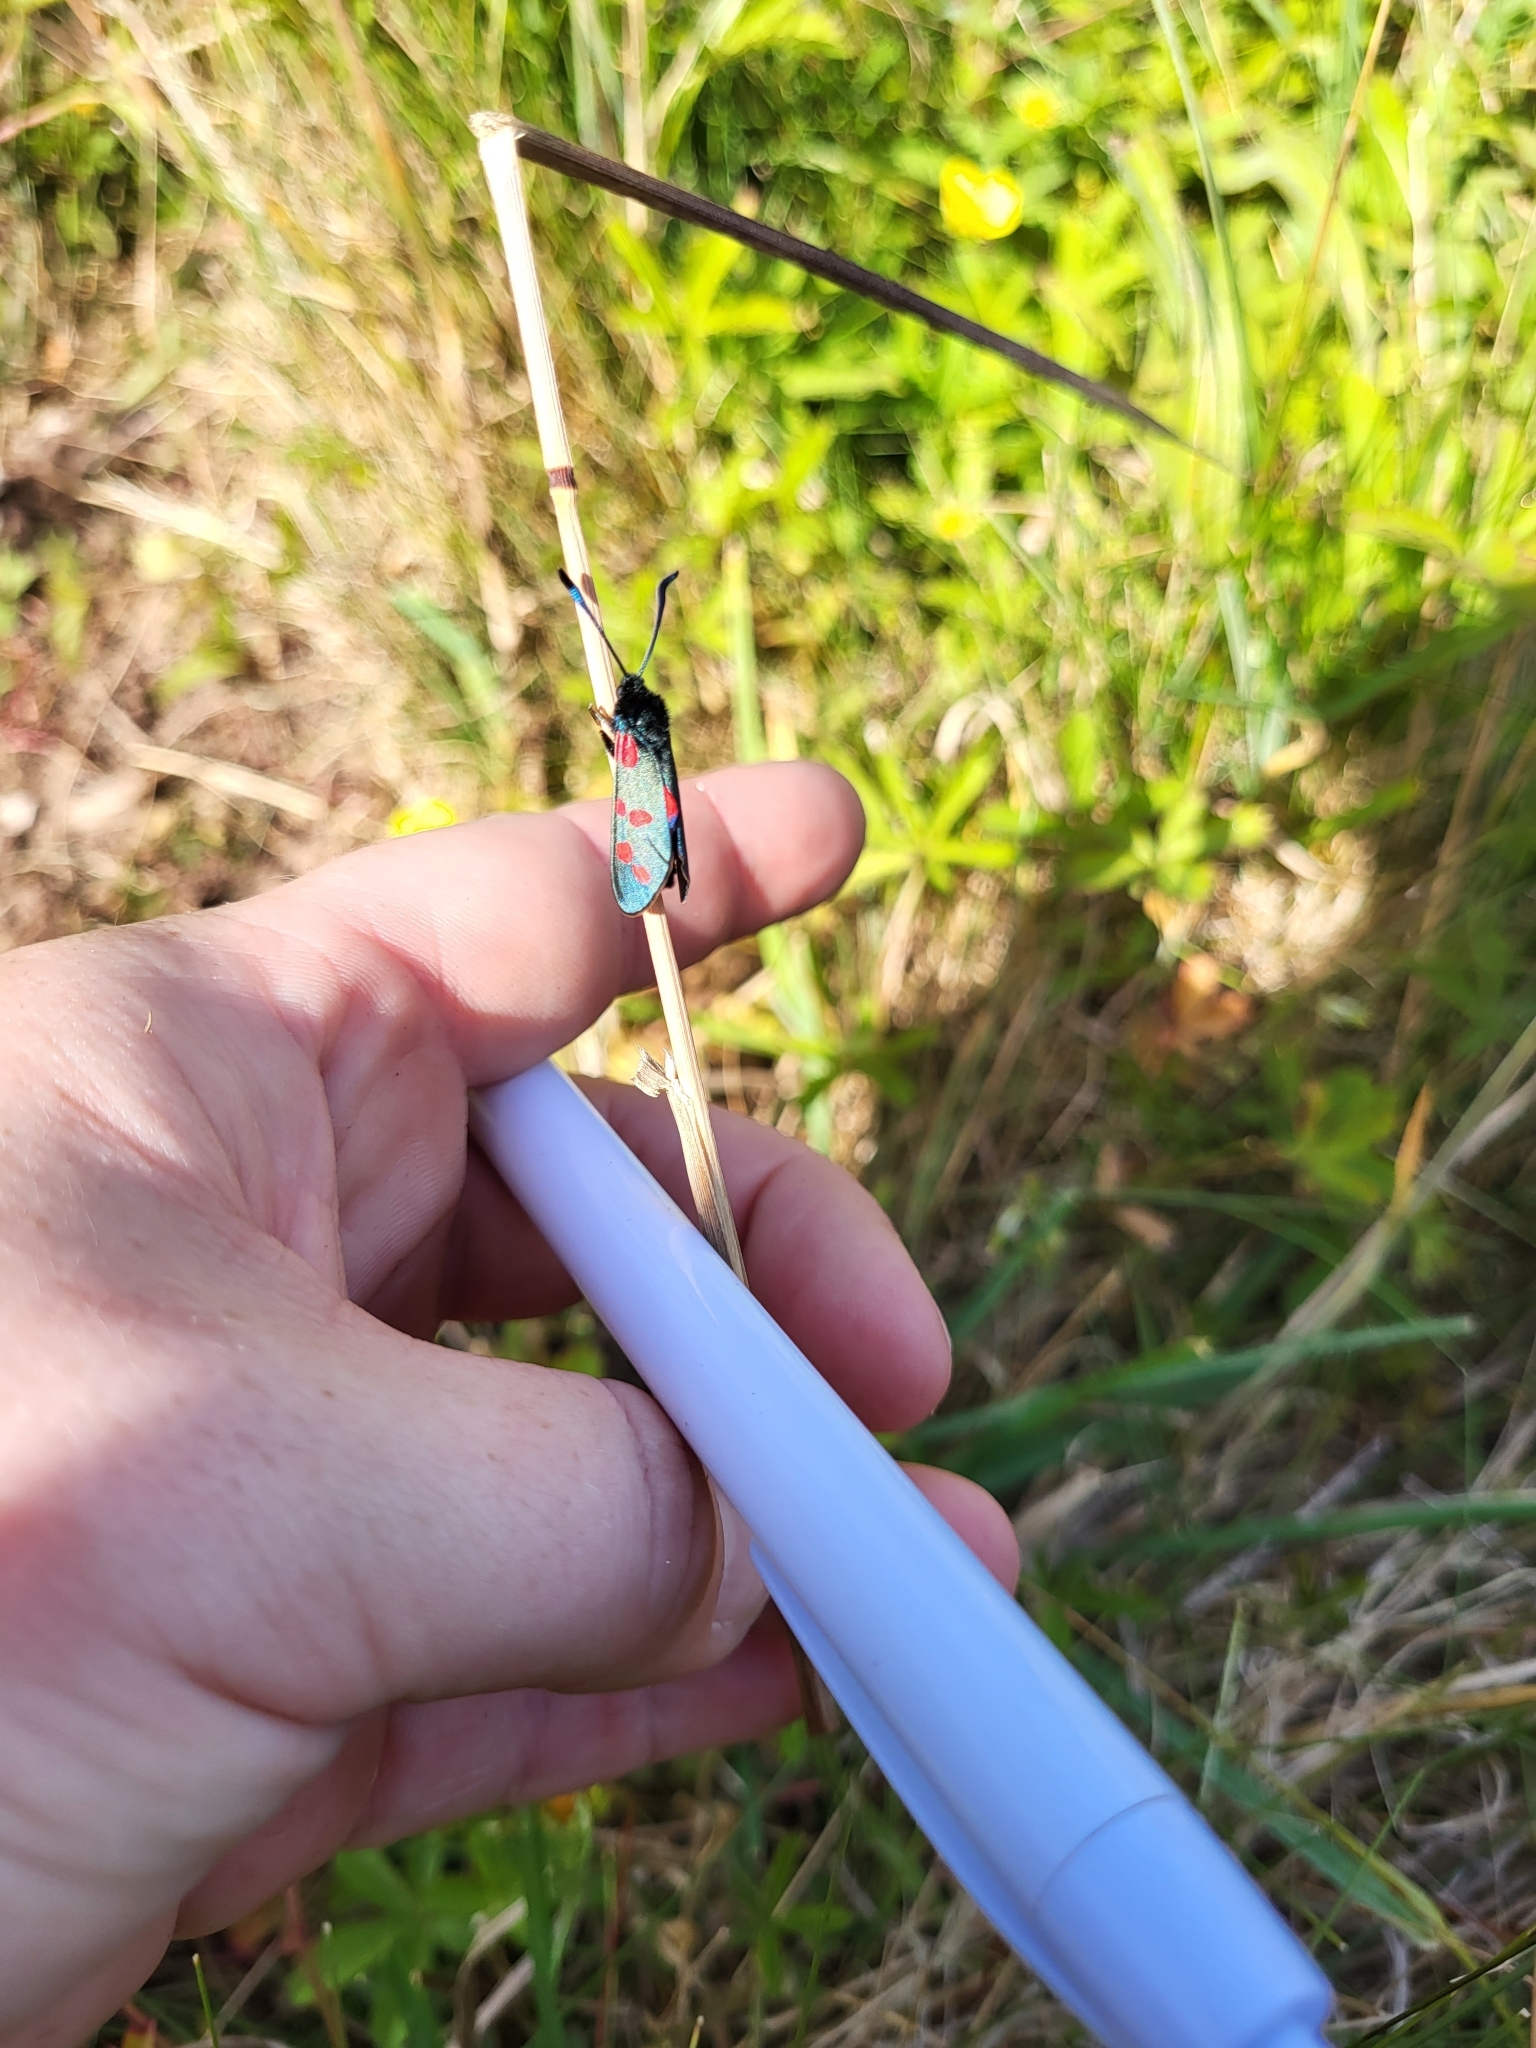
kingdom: Animalia
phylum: Arthropoda
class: Insecta
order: Lepidoptera
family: Zygaenidae
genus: Zygaena
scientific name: Zygaena filipendulae
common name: Six-spot burnet
